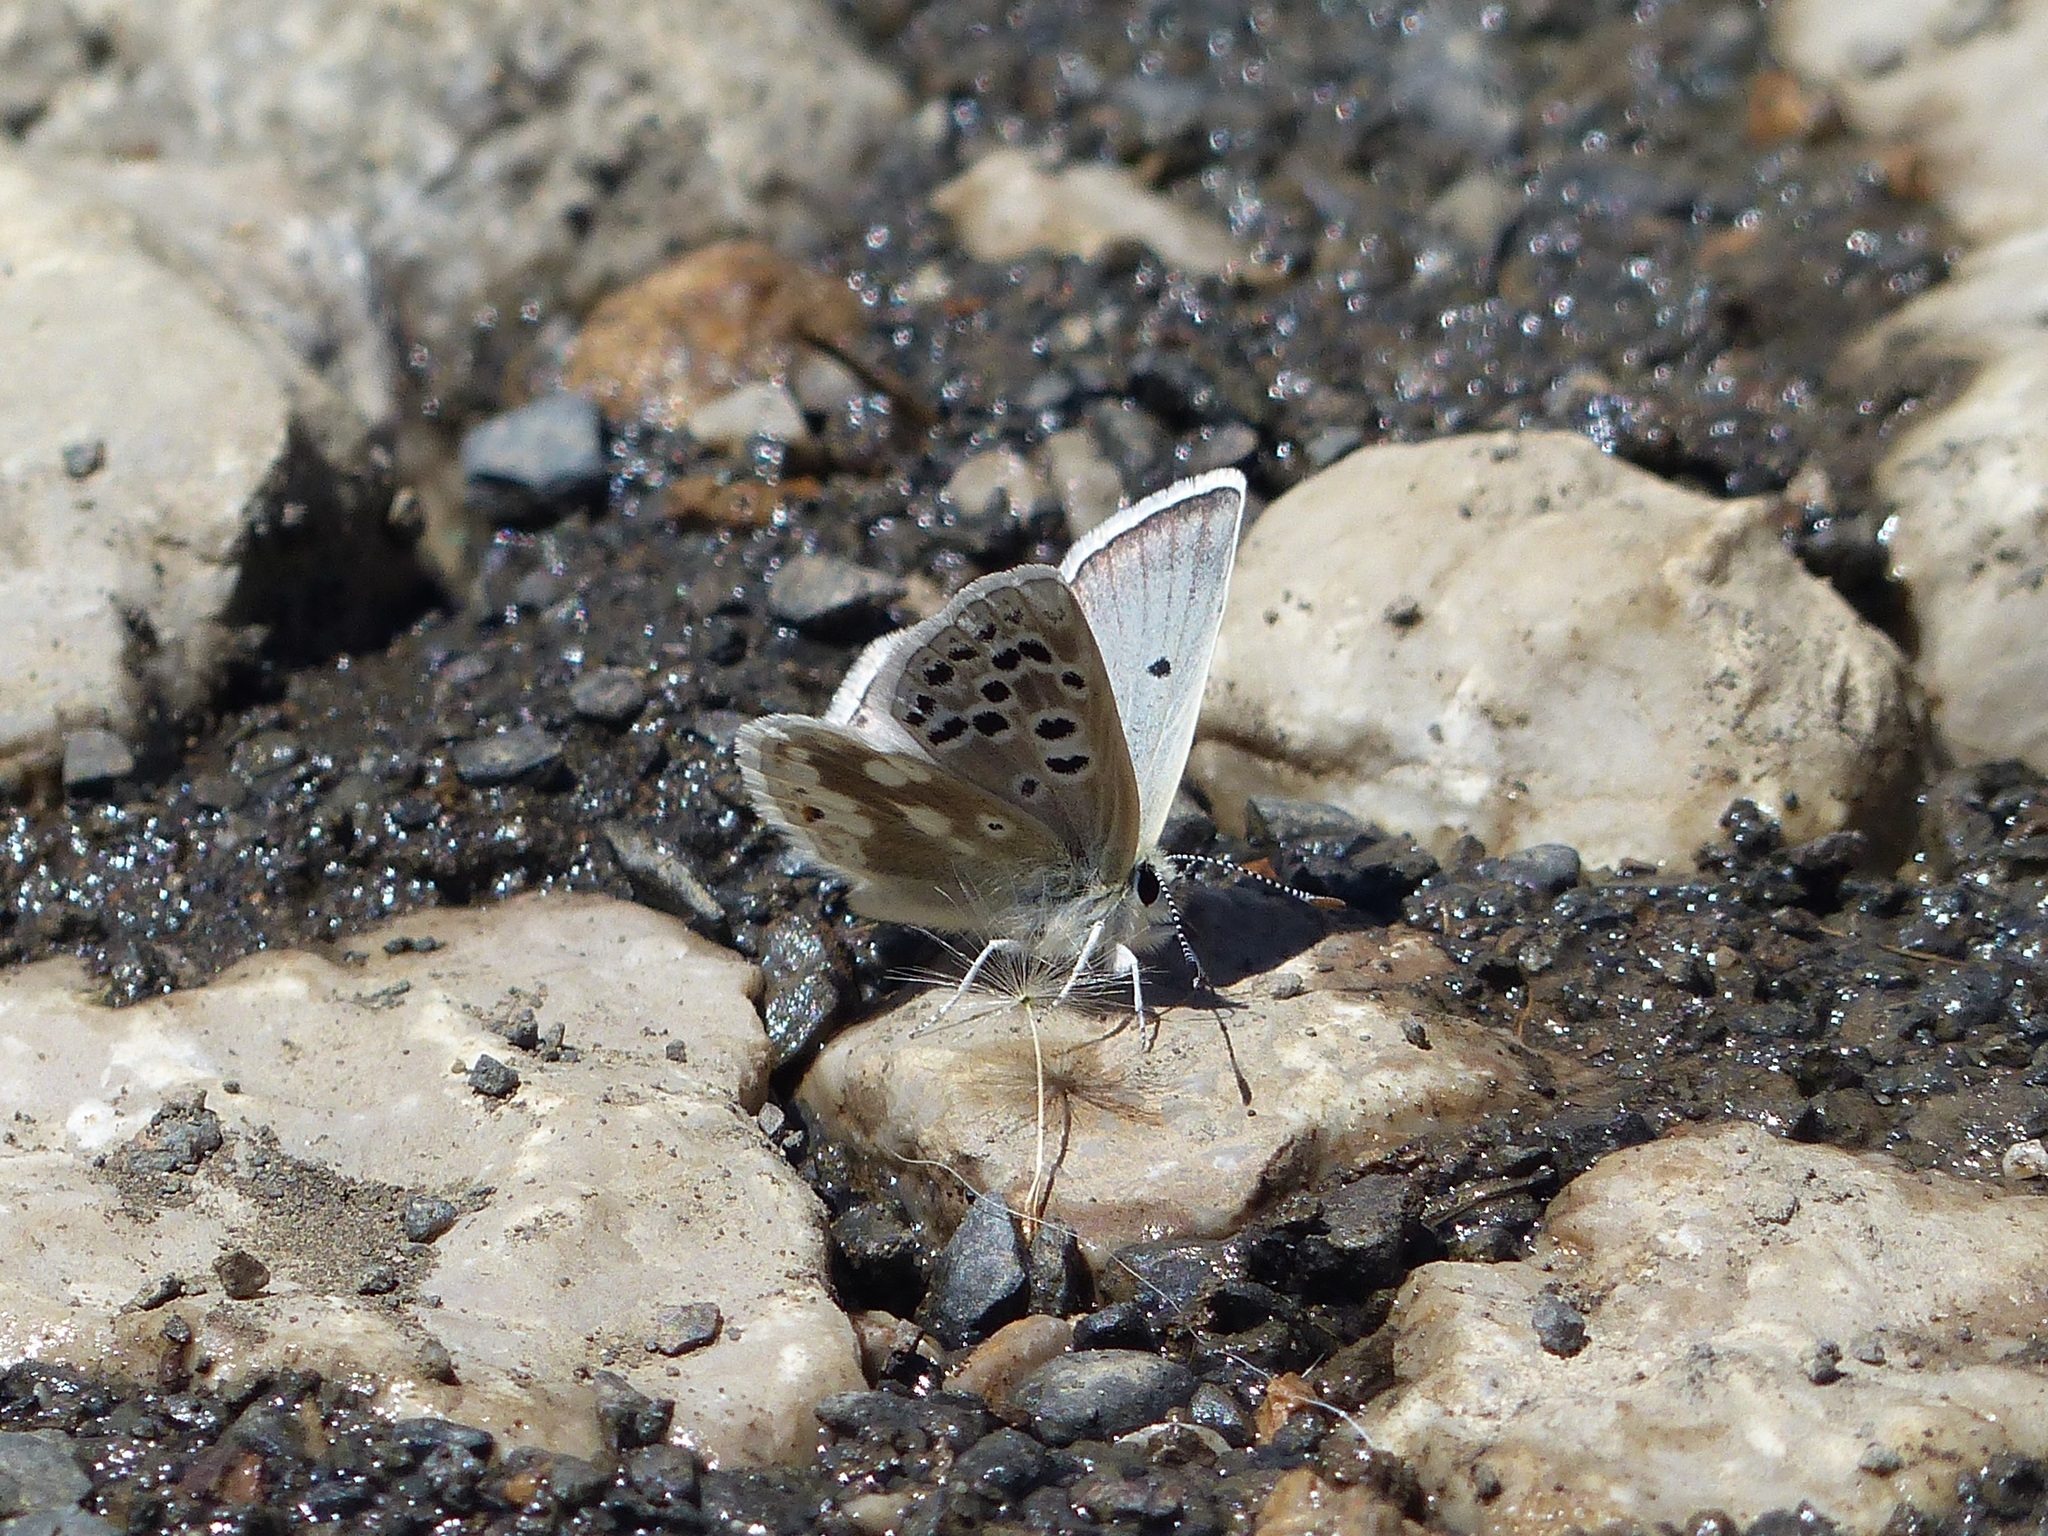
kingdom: Animalia
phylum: Arthropoda
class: Insecta
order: Lepidoptera
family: Lycaenidae
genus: Agriades
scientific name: Agriades pyrenaica
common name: Gavarnie blue
